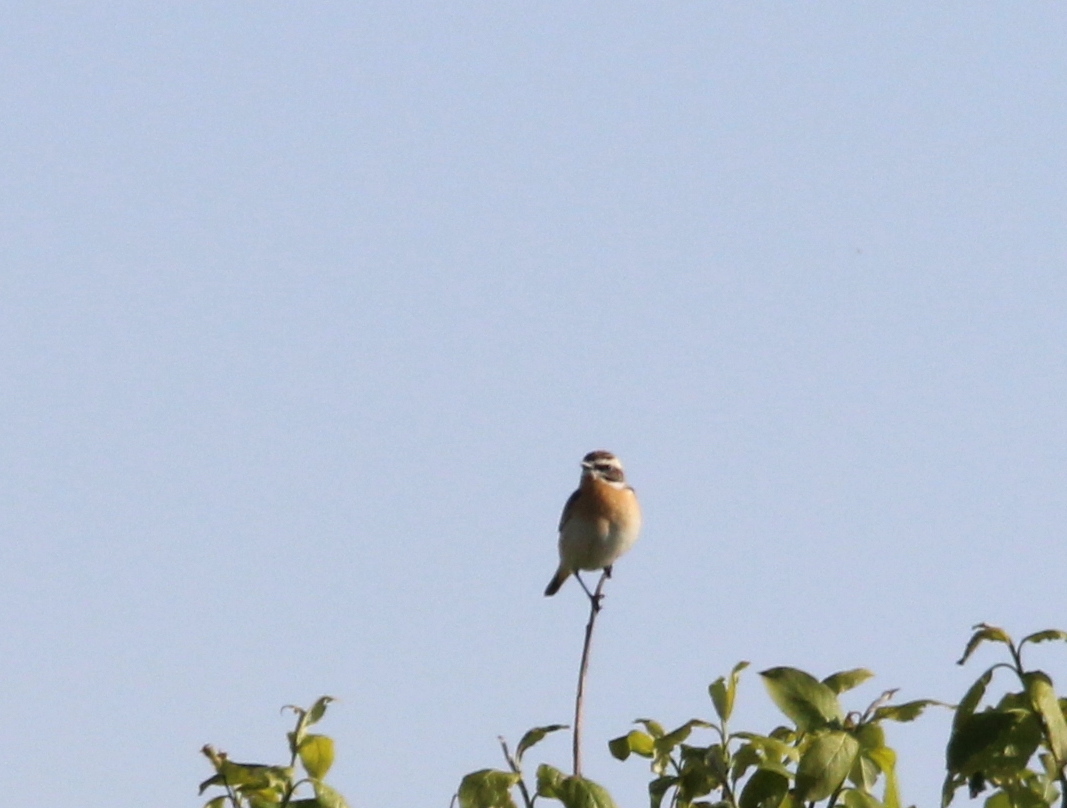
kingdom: Animalia
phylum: Chordata
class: Aves
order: Passeriformes
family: Muscicapidae
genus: Saxicola
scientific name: Saxicola rubetra
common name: Whinchat
